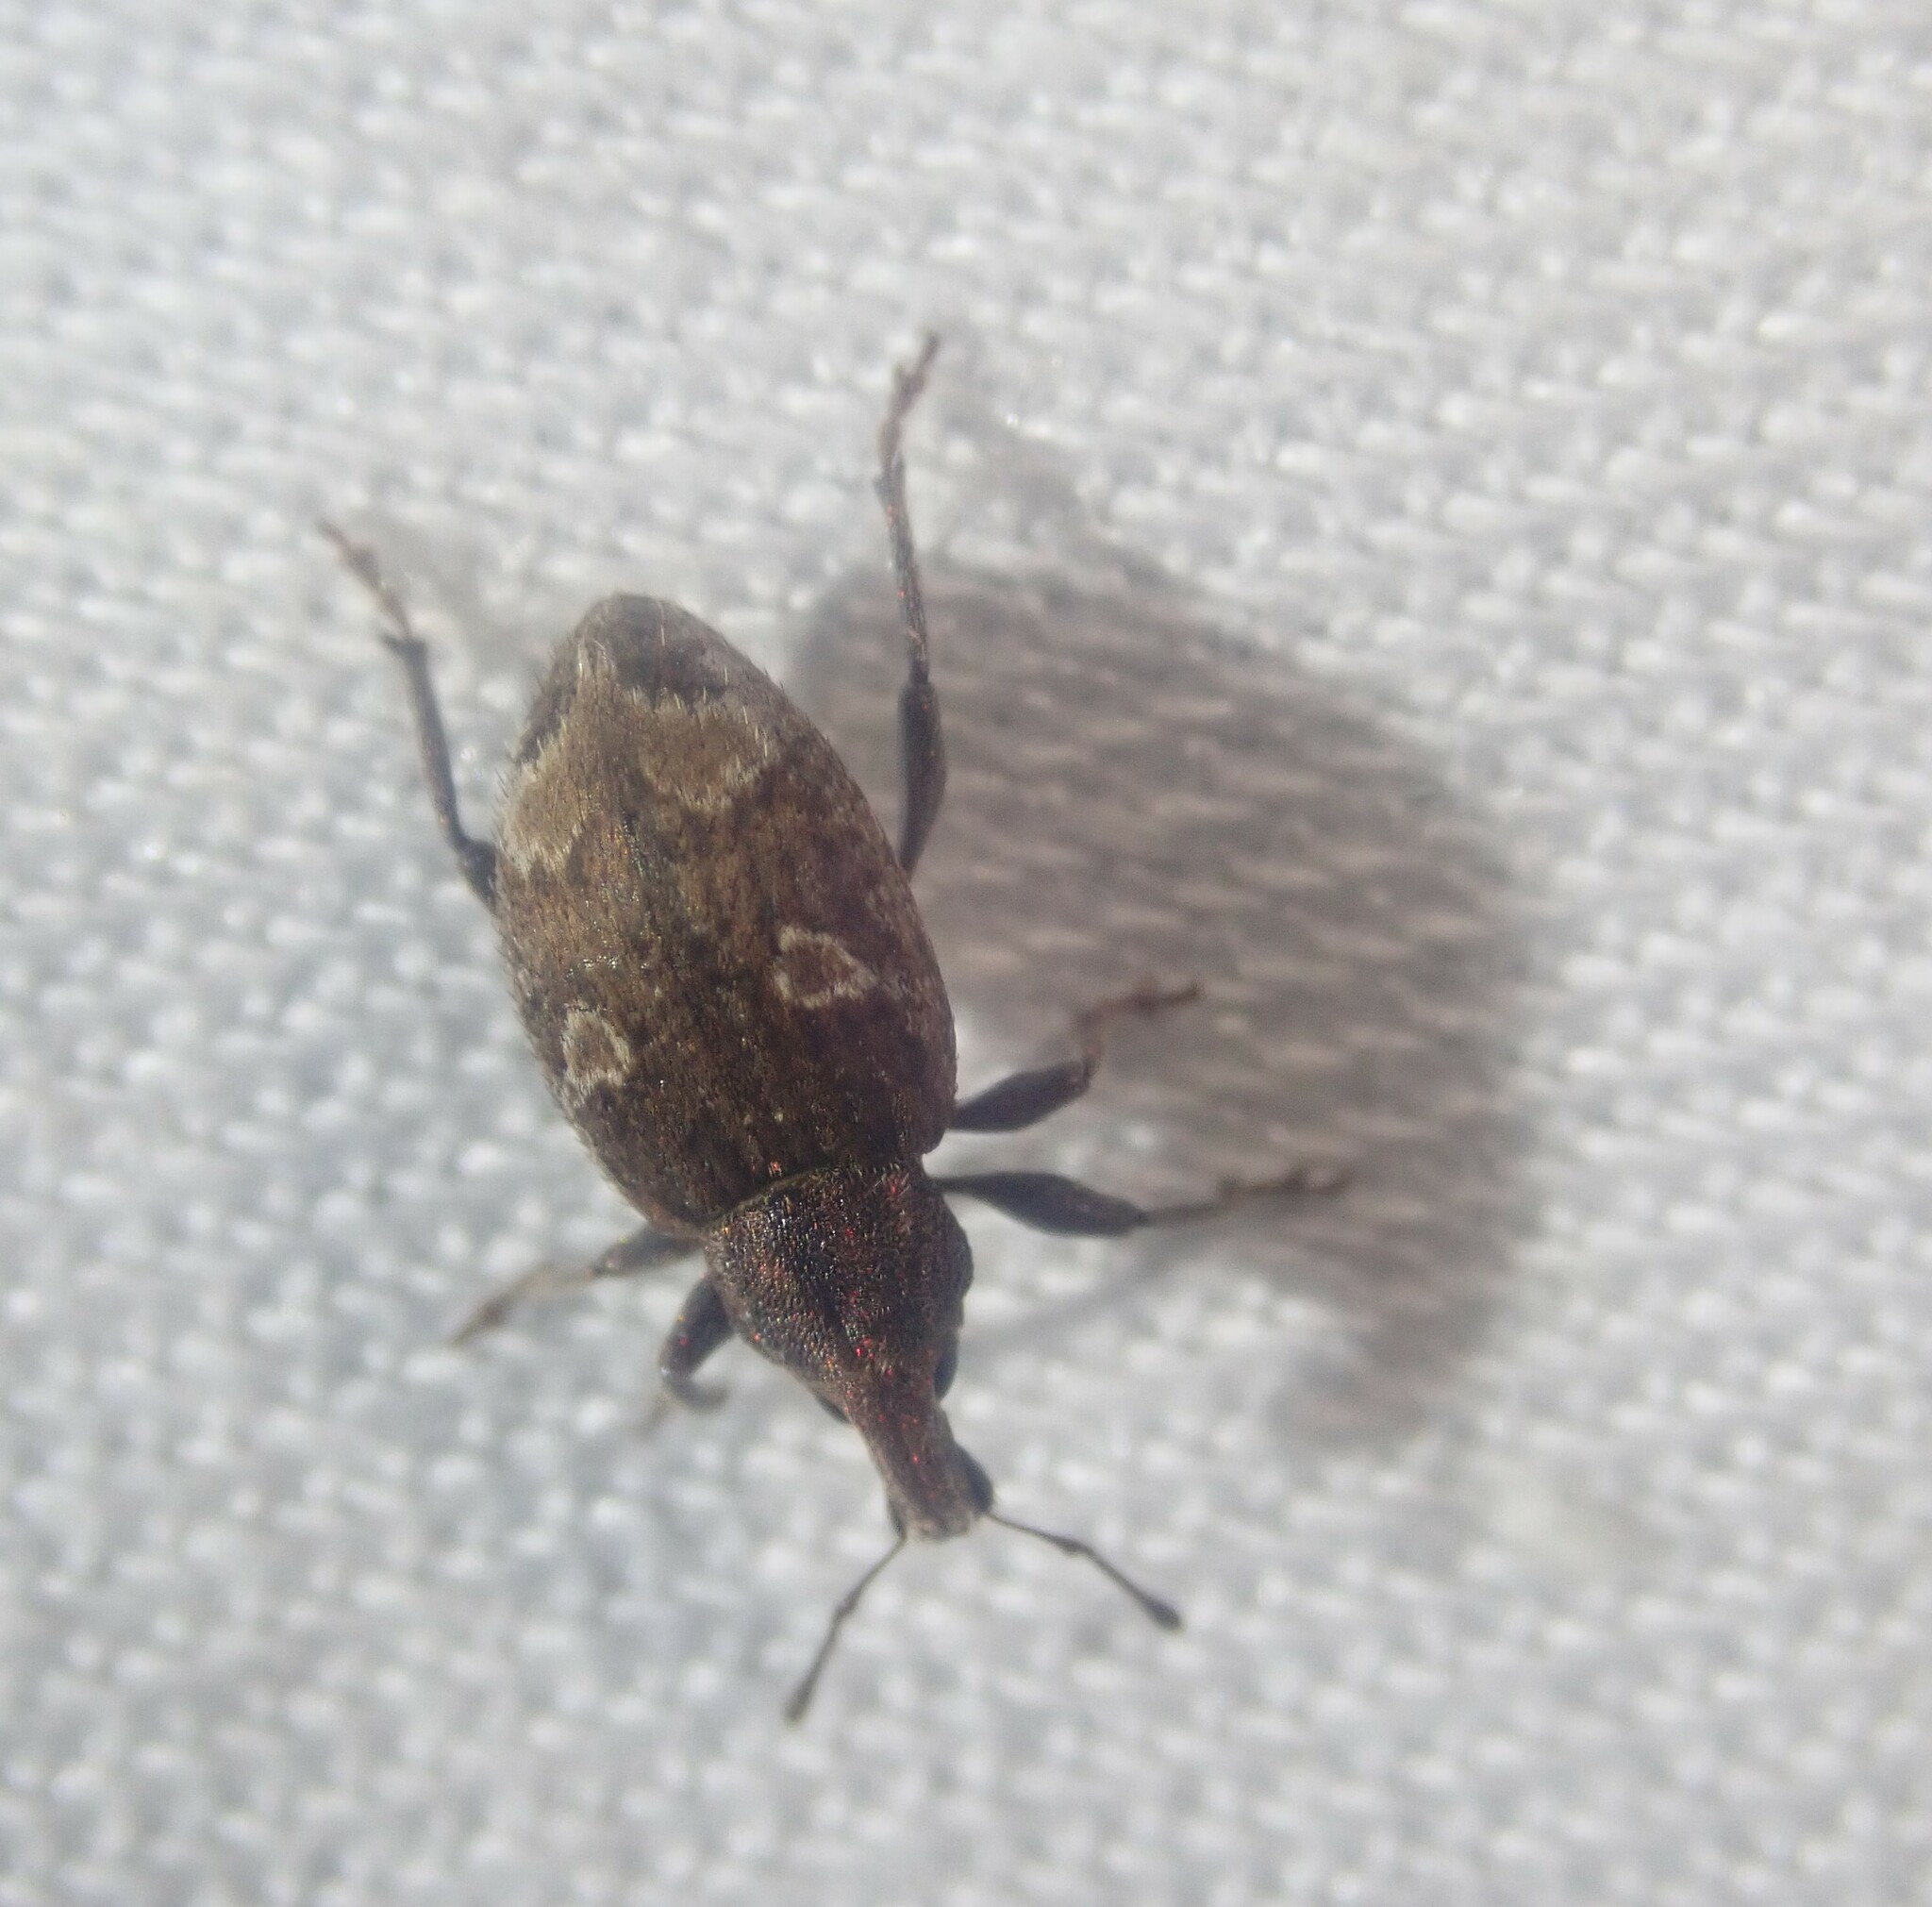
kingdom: Animalia
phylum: Arthropoda
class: Insecta
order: Coleoptera
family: Curculionidae
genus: Graptus
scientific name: Graptus triguttatus
